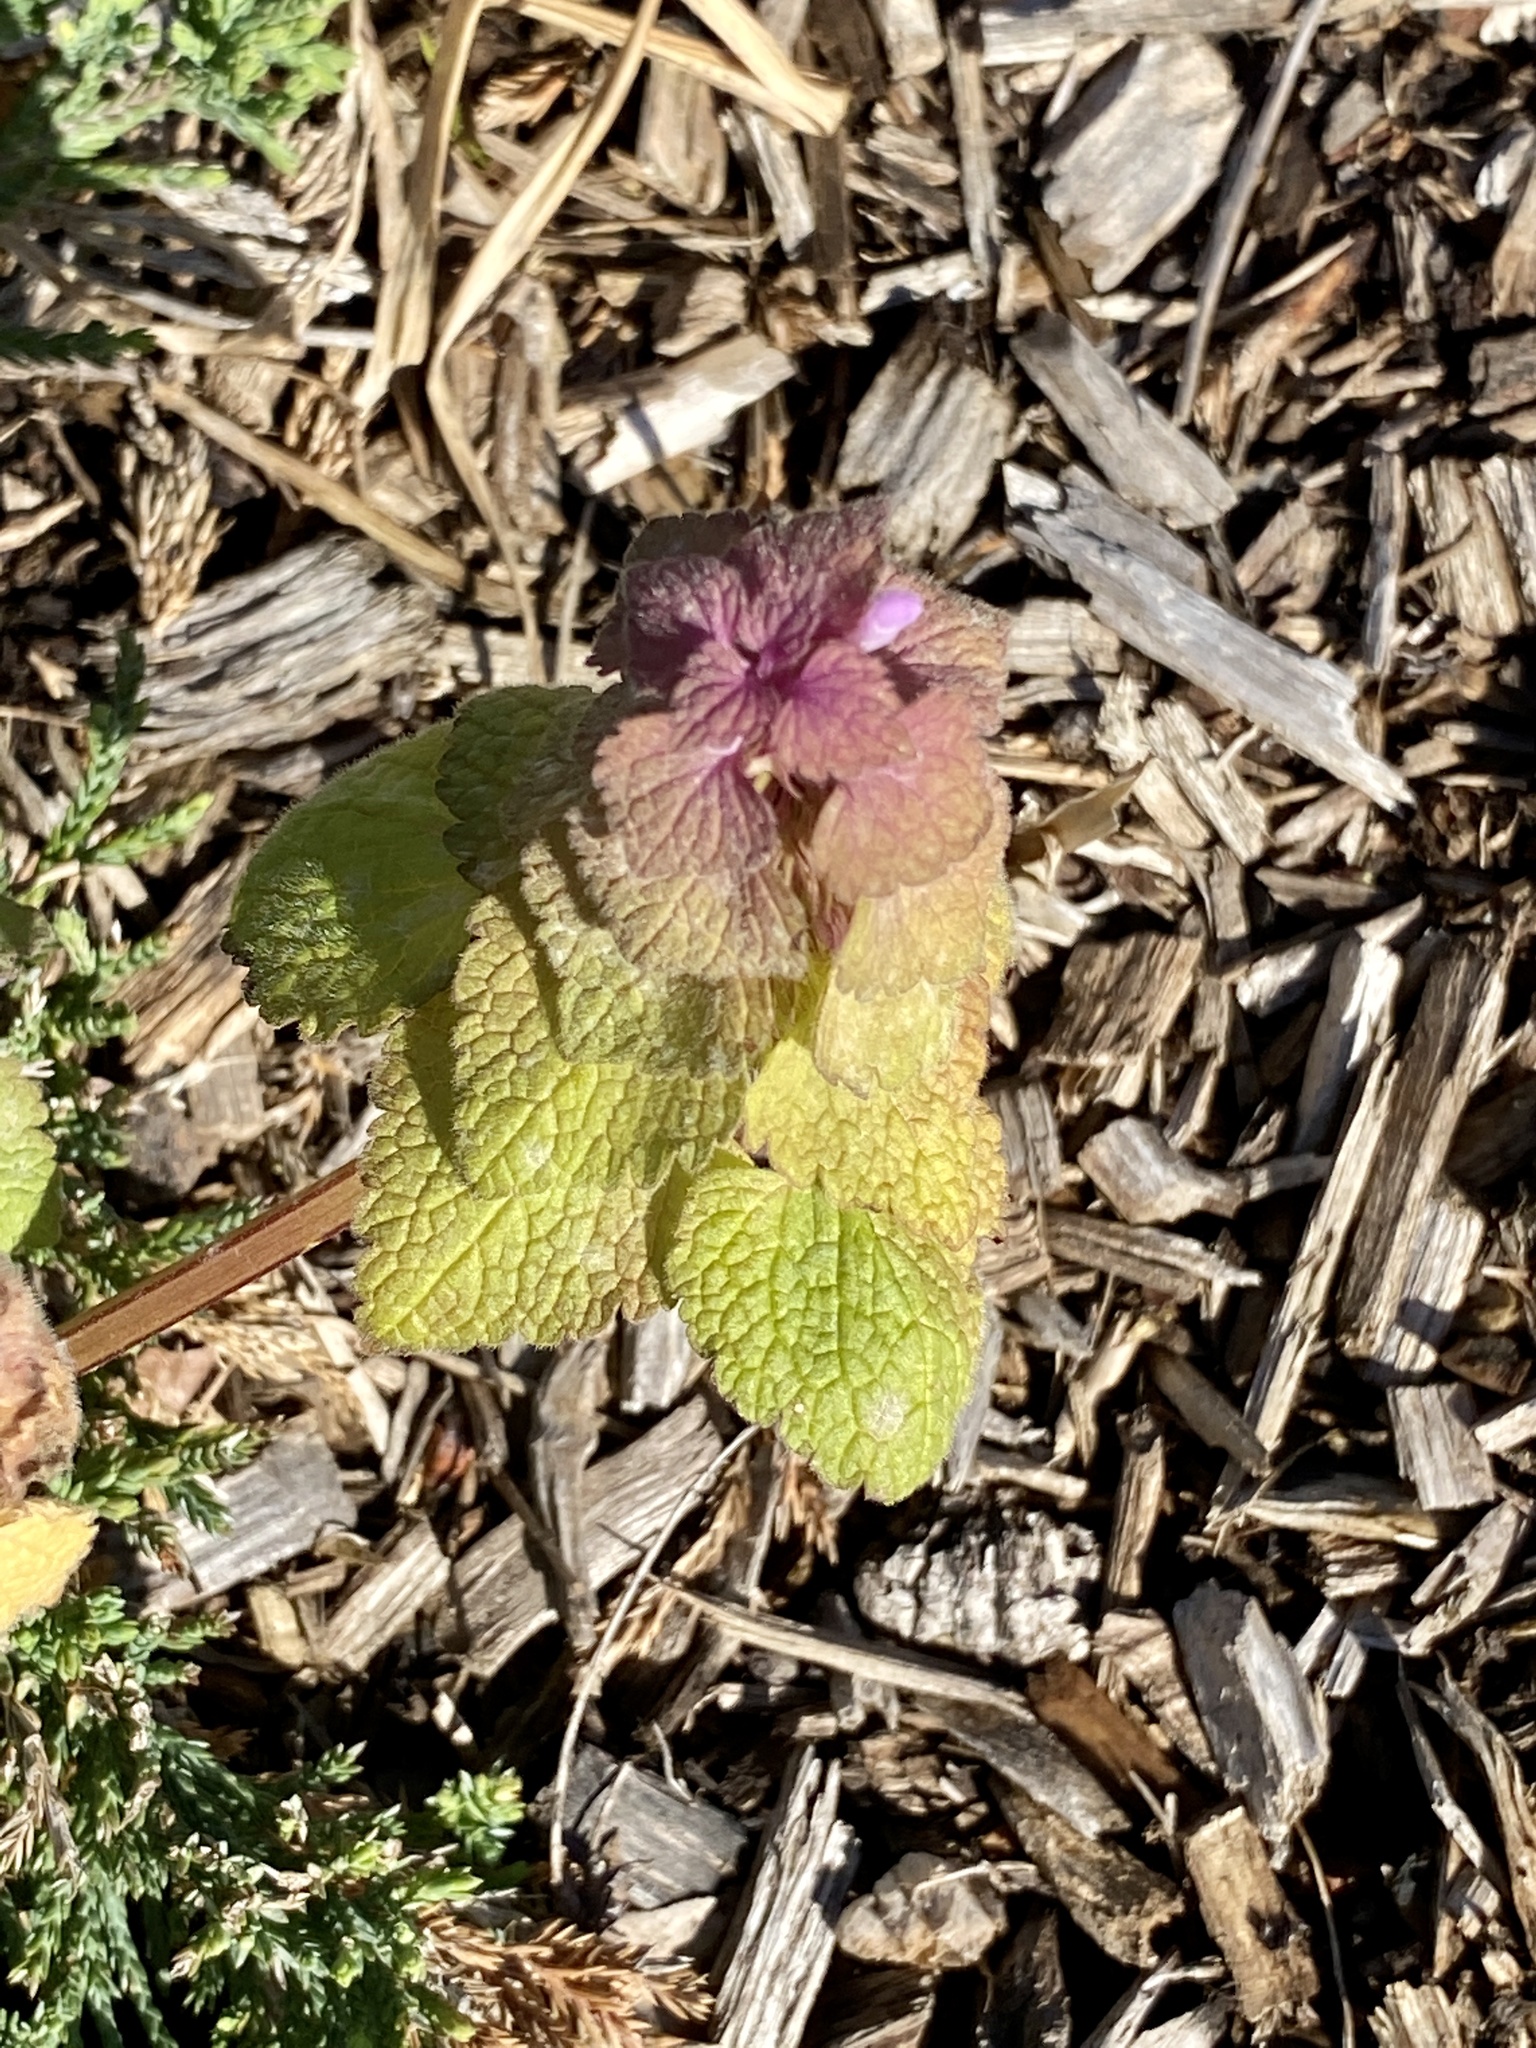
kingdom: Plantae
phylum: Tracheophyta
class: Magnoliopsida
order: Lamiales
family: Lamiaceae
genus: Lamium
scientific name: Lamium purpureum
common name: Red dead-nettle
